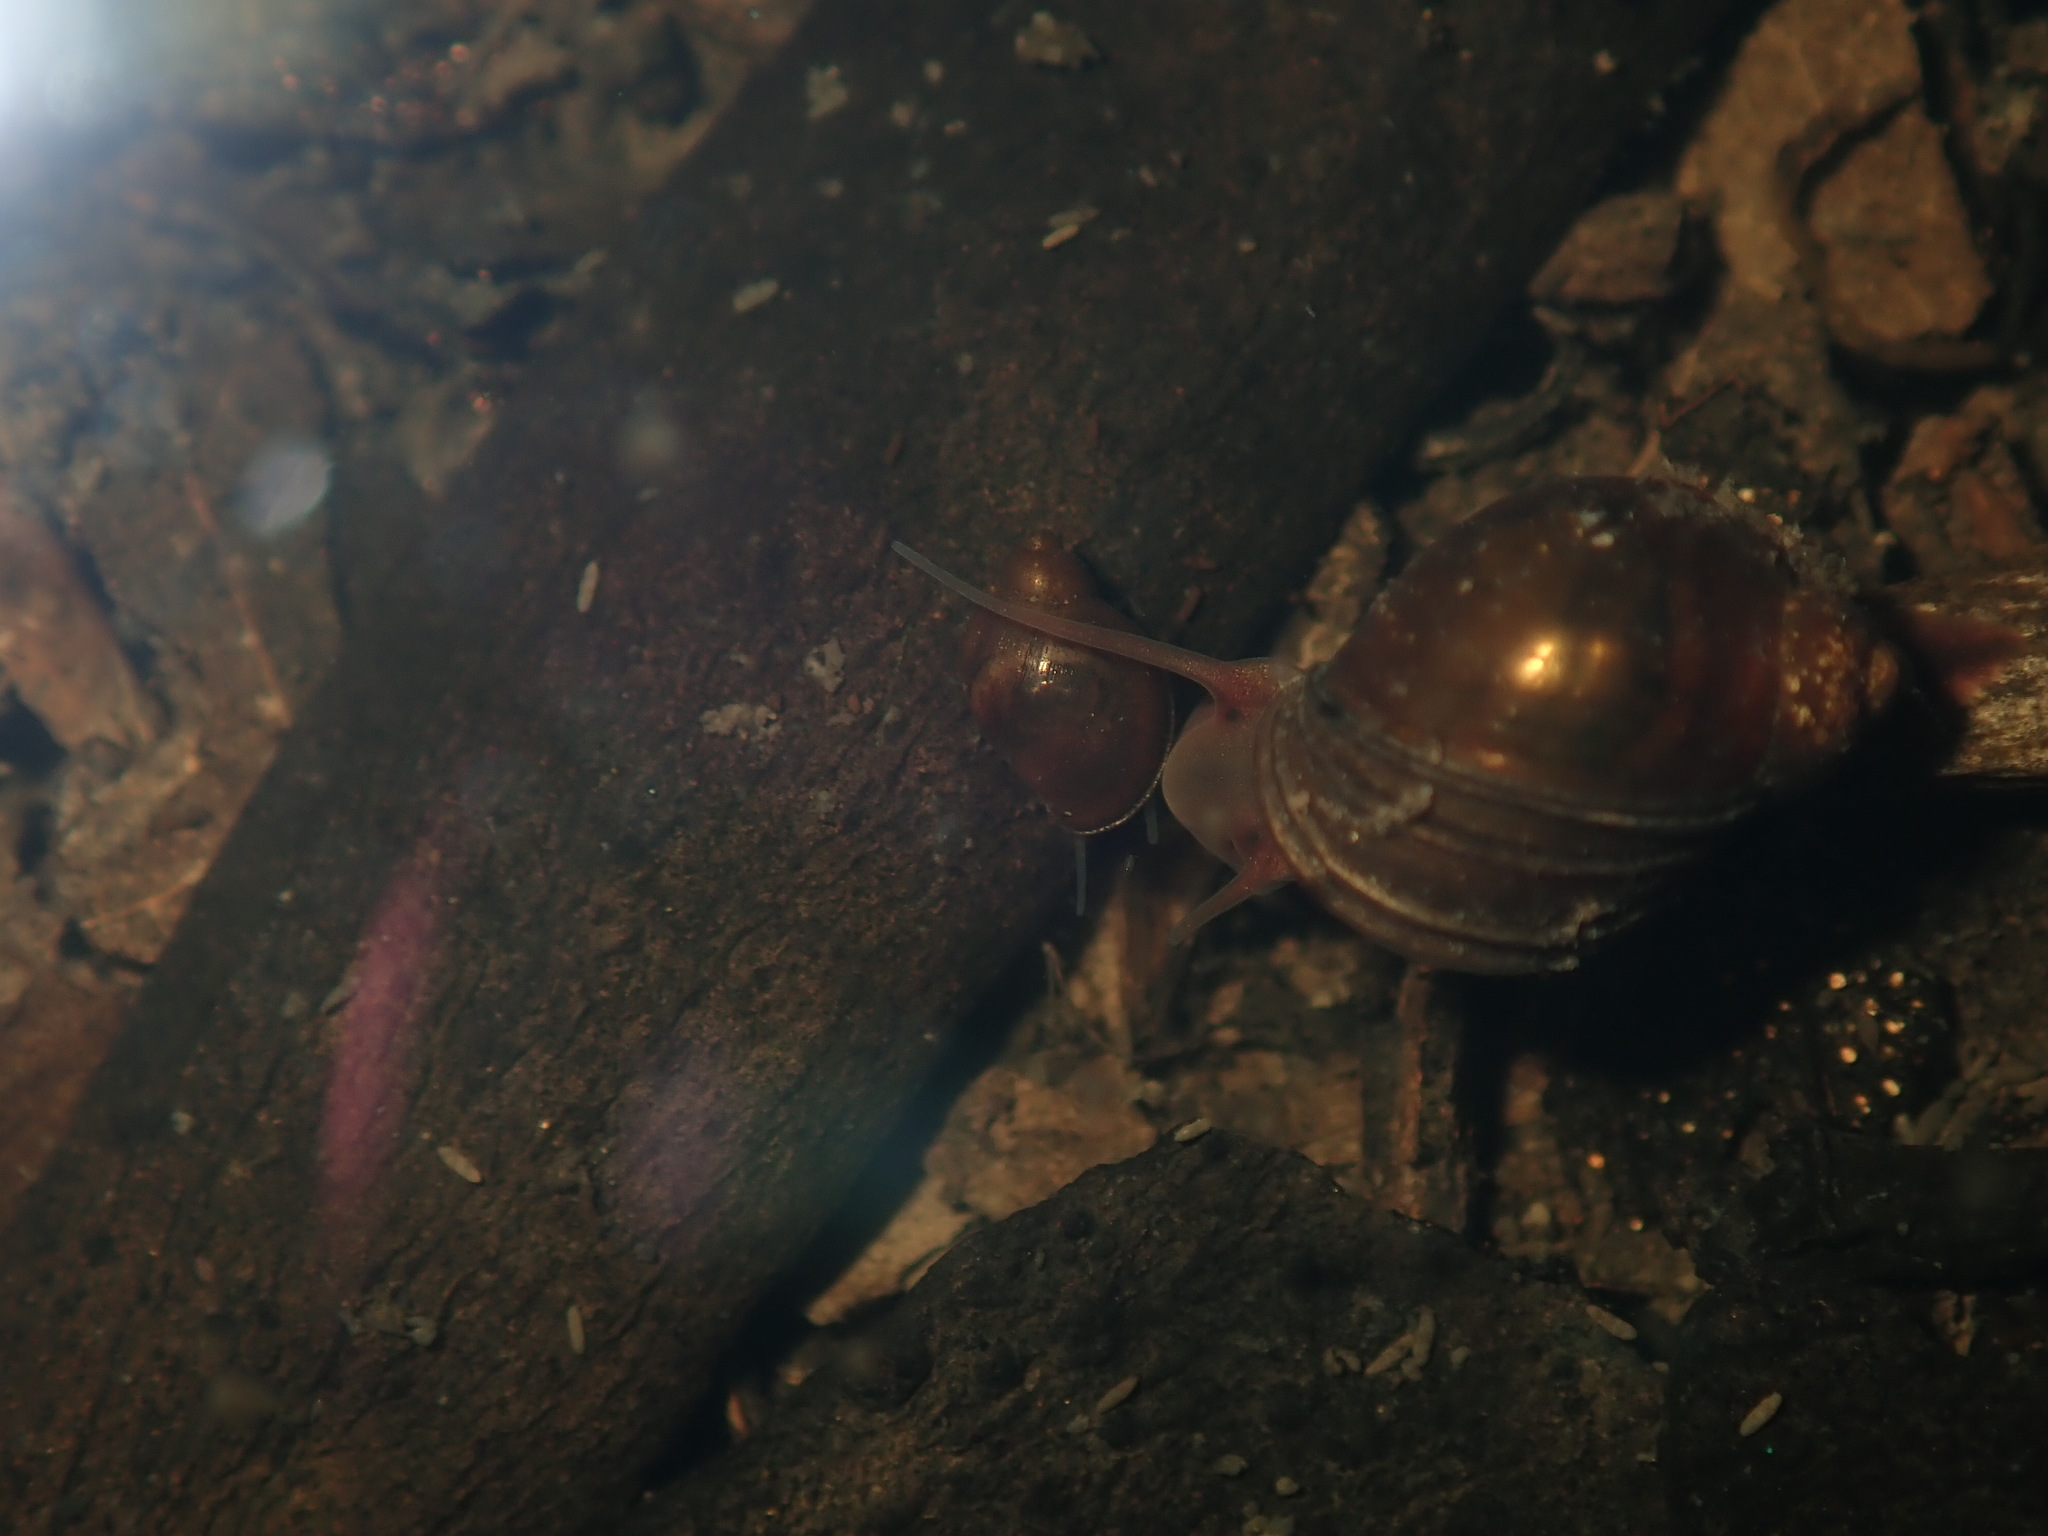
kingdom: Animalia
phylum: Mollusca
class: Gastropoda
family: Planorbidae
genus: Isidorella
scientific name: Isidorella hainesii
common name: Haine’s pouch snail
